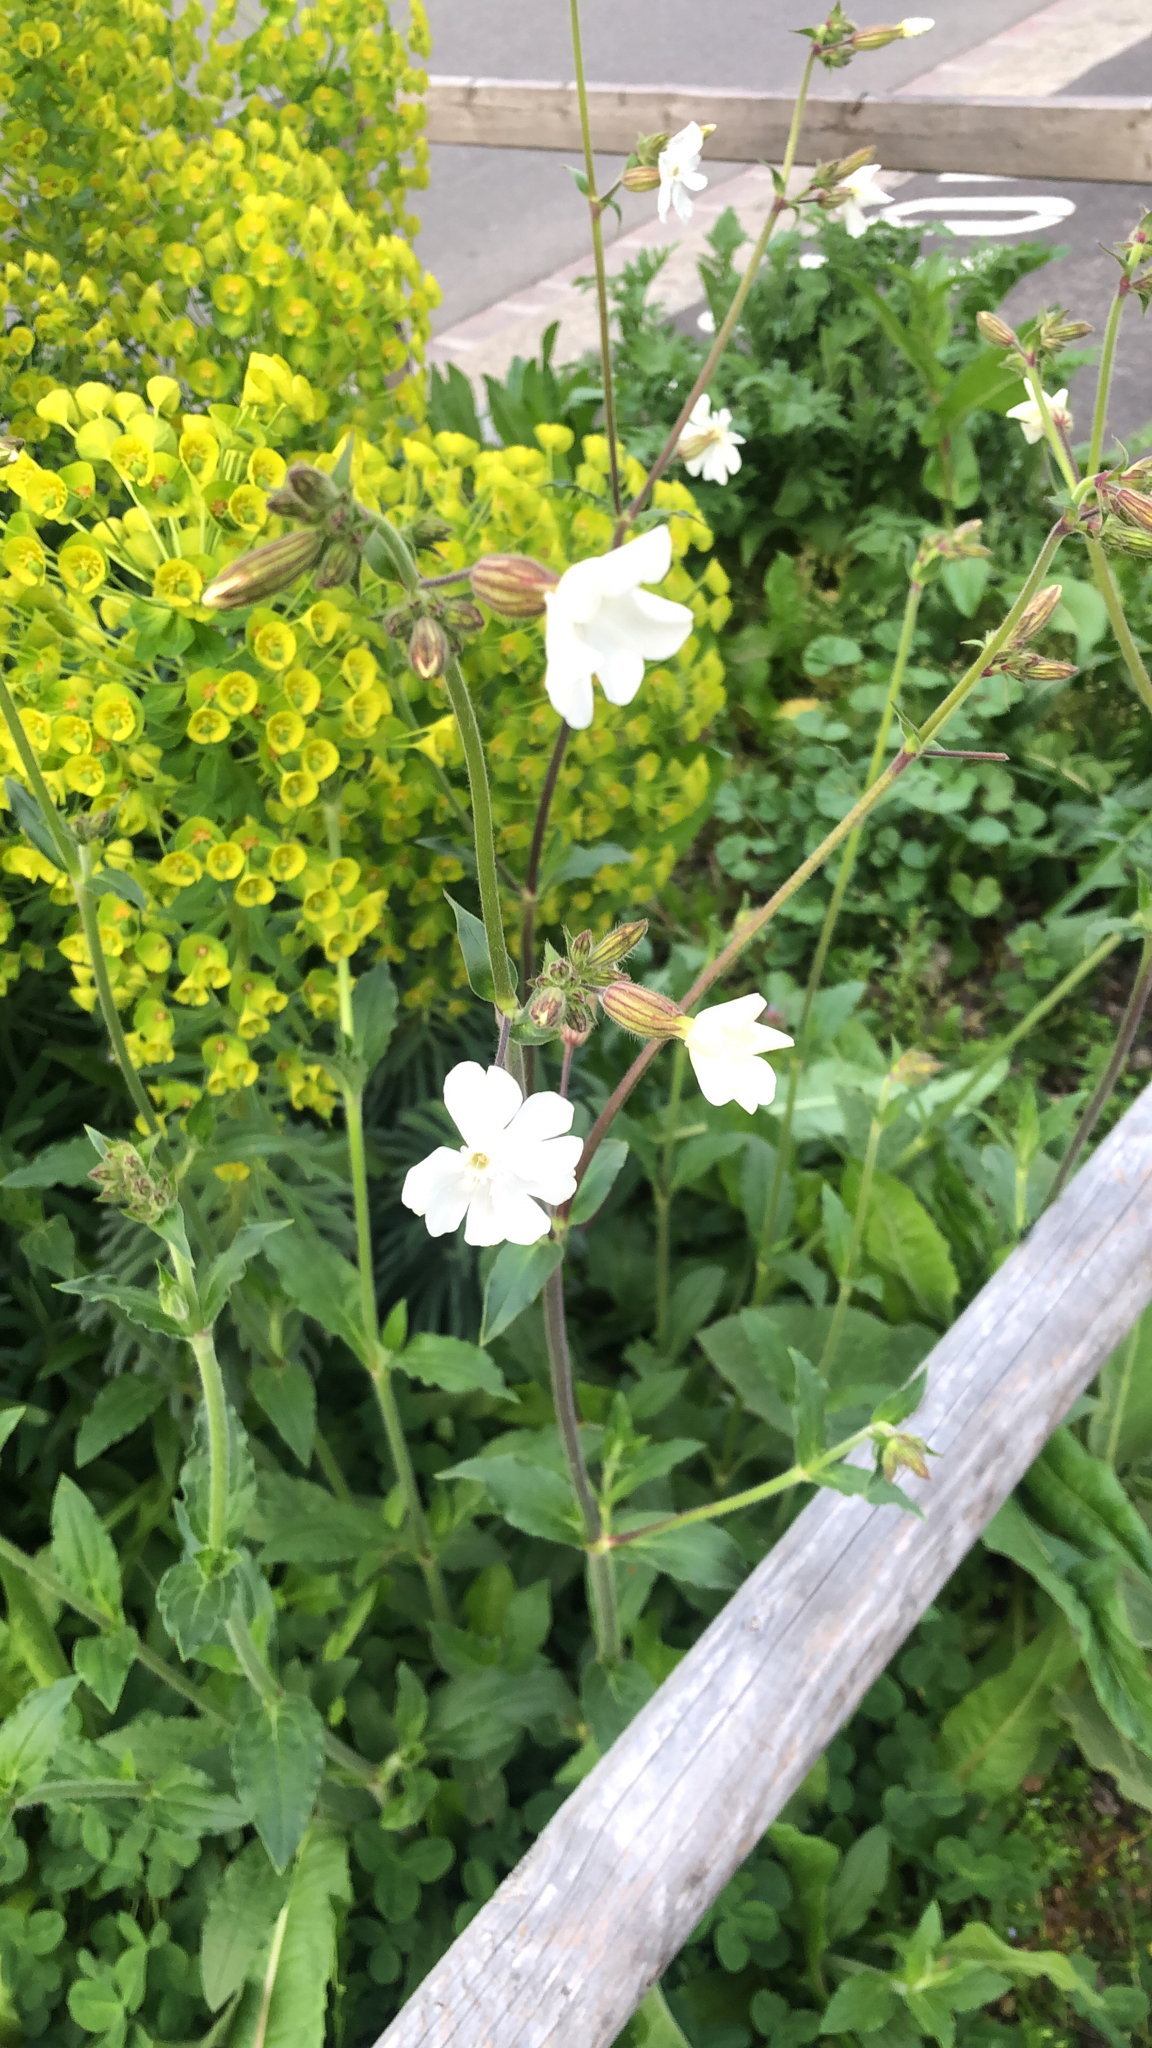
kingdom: Plantae
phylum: Tracheophyta
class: Magnoliopsida
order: Caryophyllales
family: Caryophyllaceae
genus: Silene
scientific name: Silene latifolia
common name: White campion
